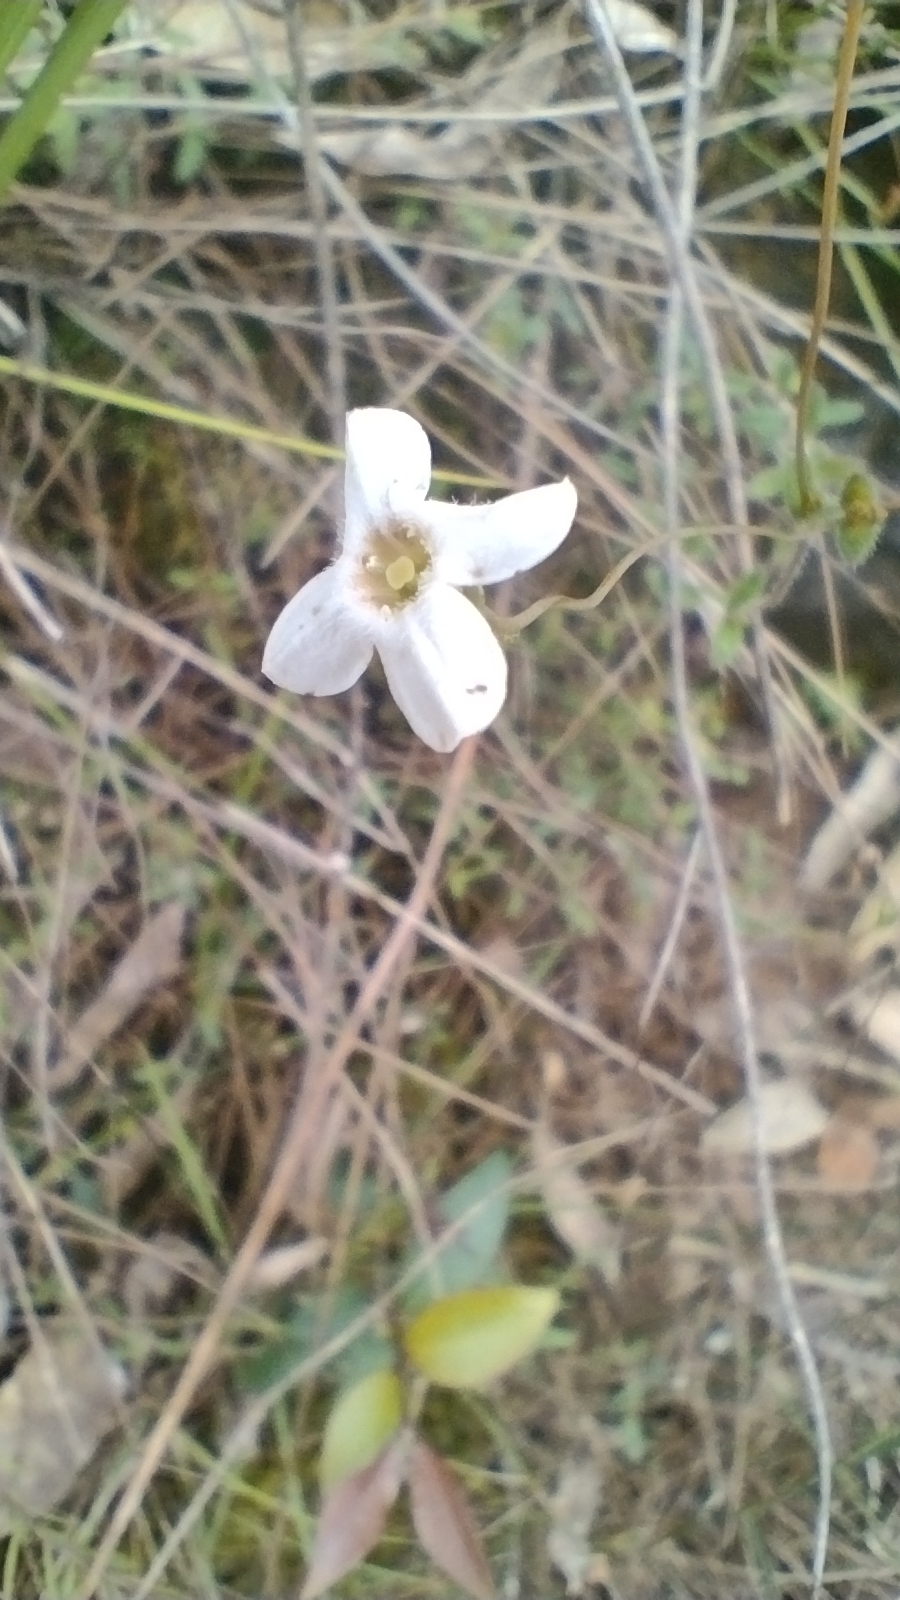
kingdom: Plantae
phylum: Tracheophyta
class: Magnoliopsida
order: Gentianales
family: Loganiaceae
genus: Mitrasacme
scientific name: Mitrasacme polymorpha
